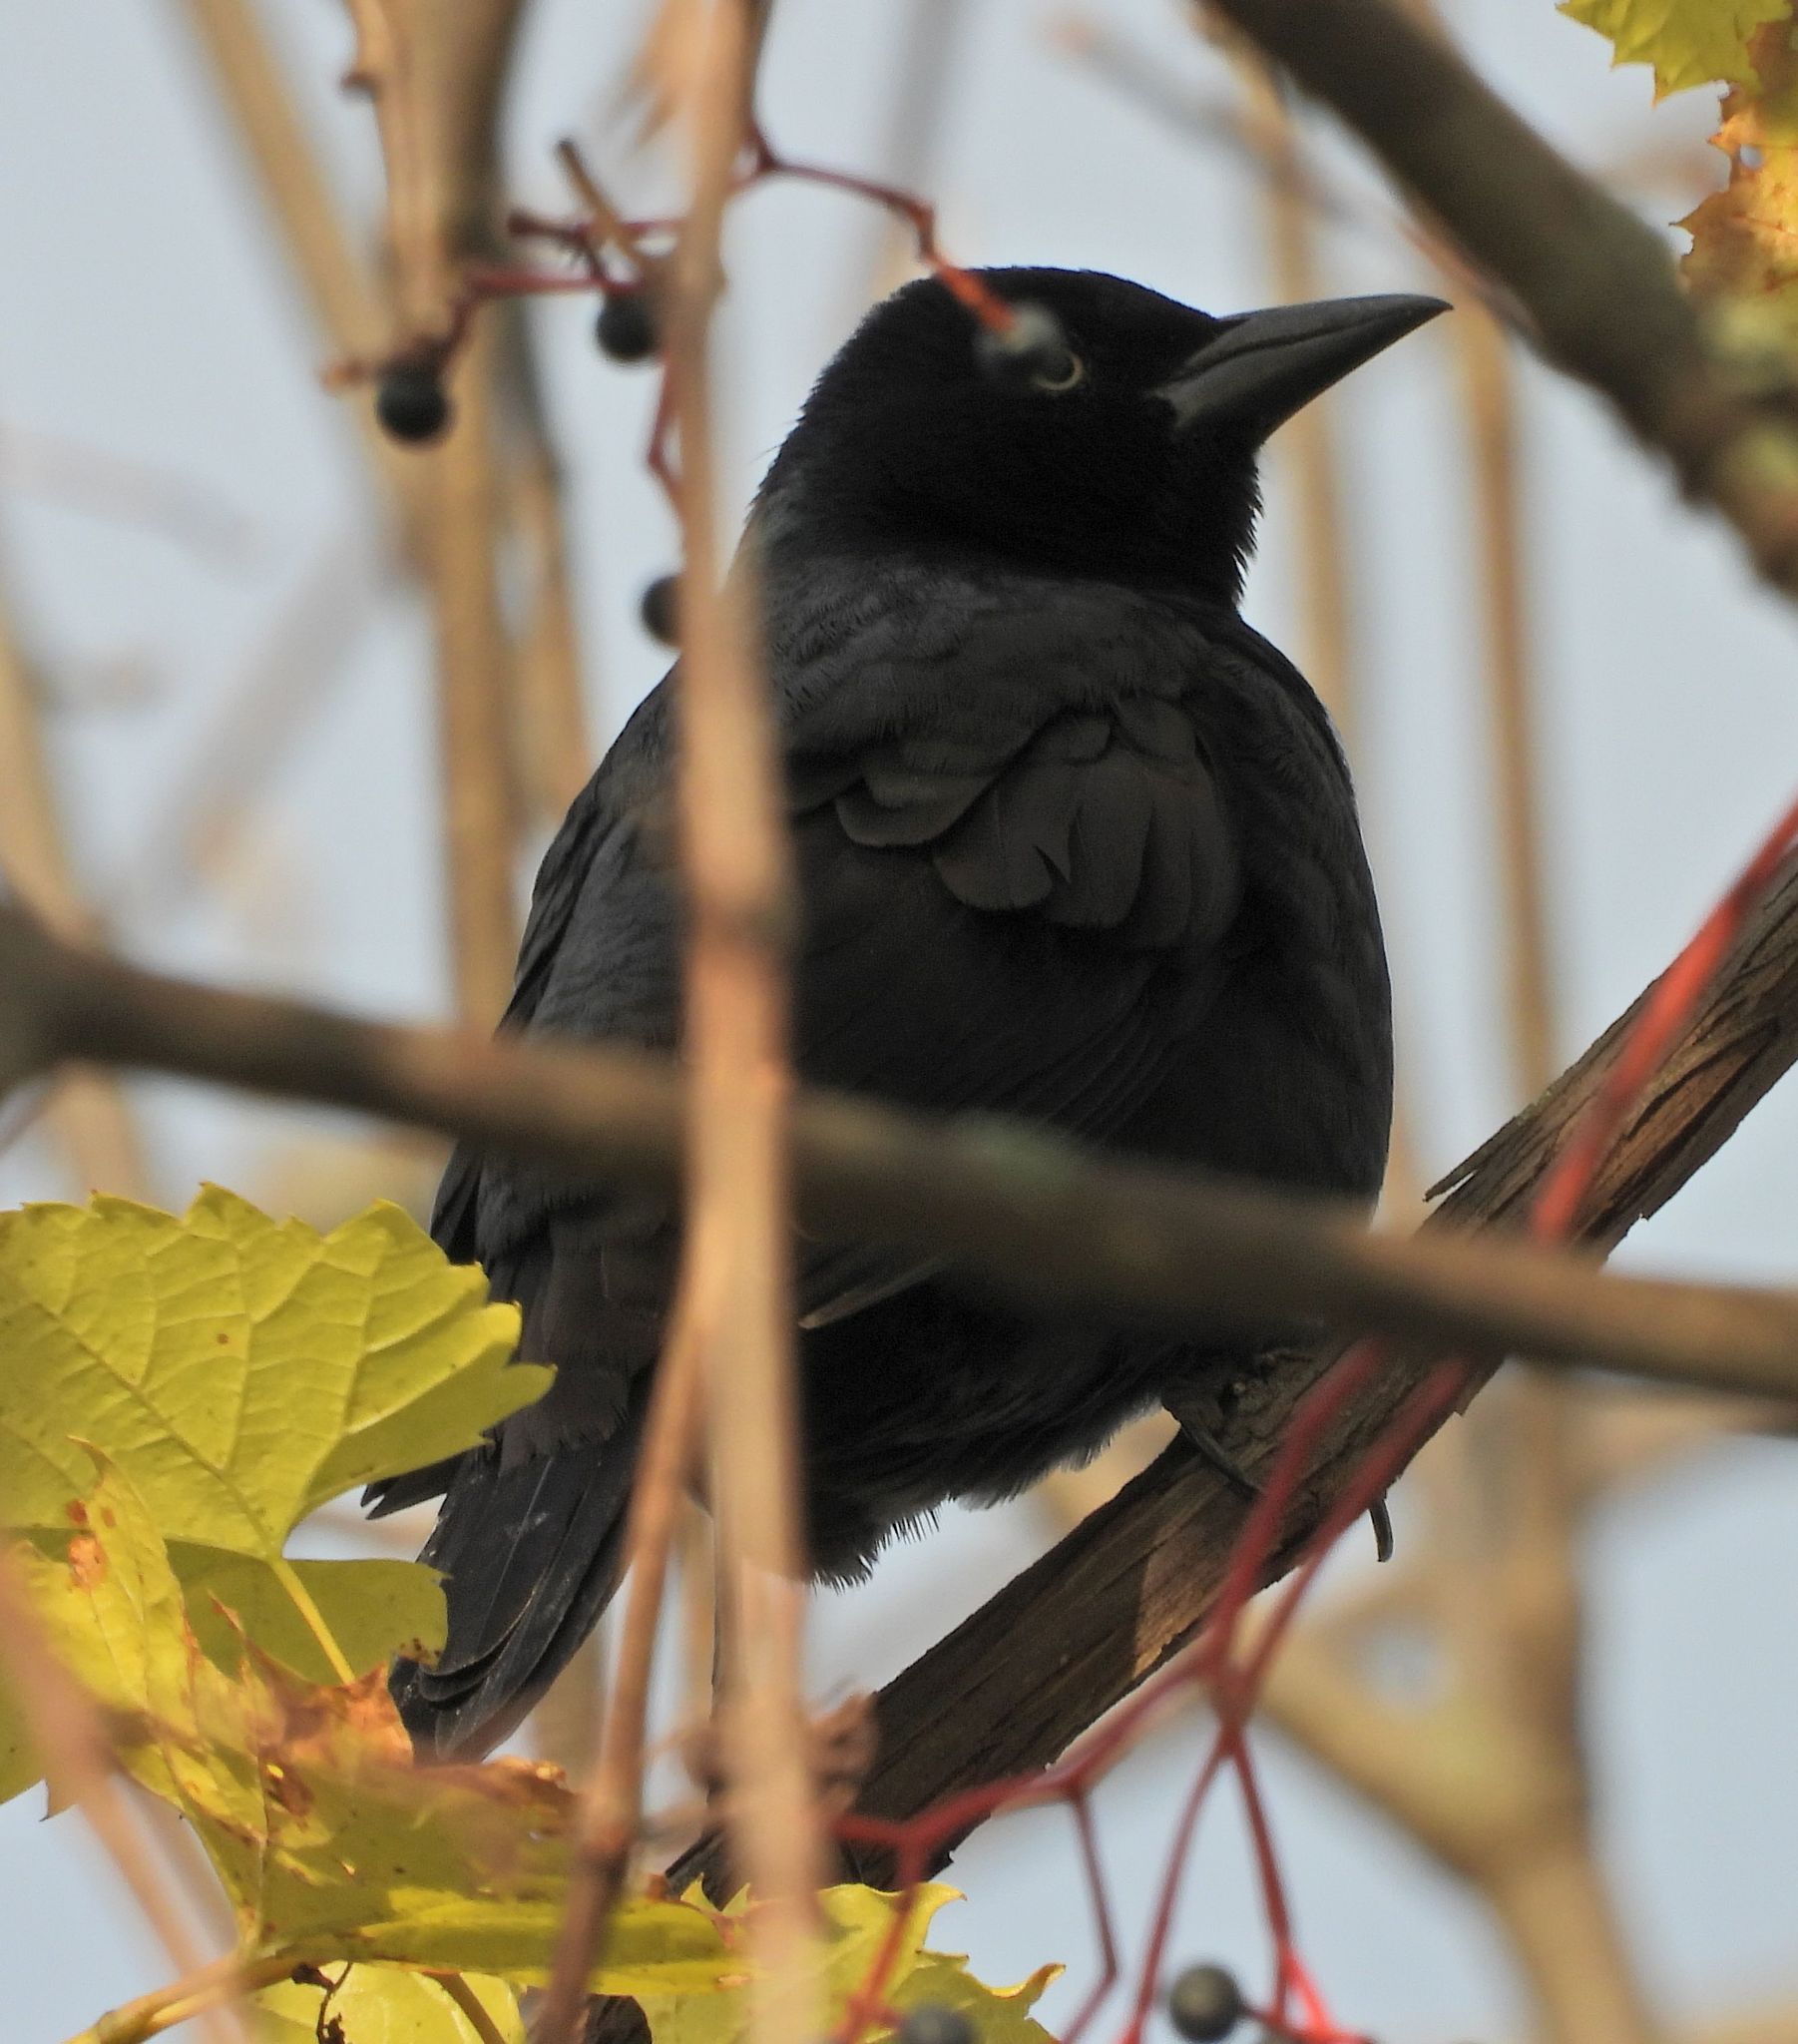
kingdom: Animalia
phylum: Chordata
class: Aves
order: Passeriformes
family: Icteridae
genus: Quiscalus
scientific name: Quiscalus quiscula
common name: Common grackle
